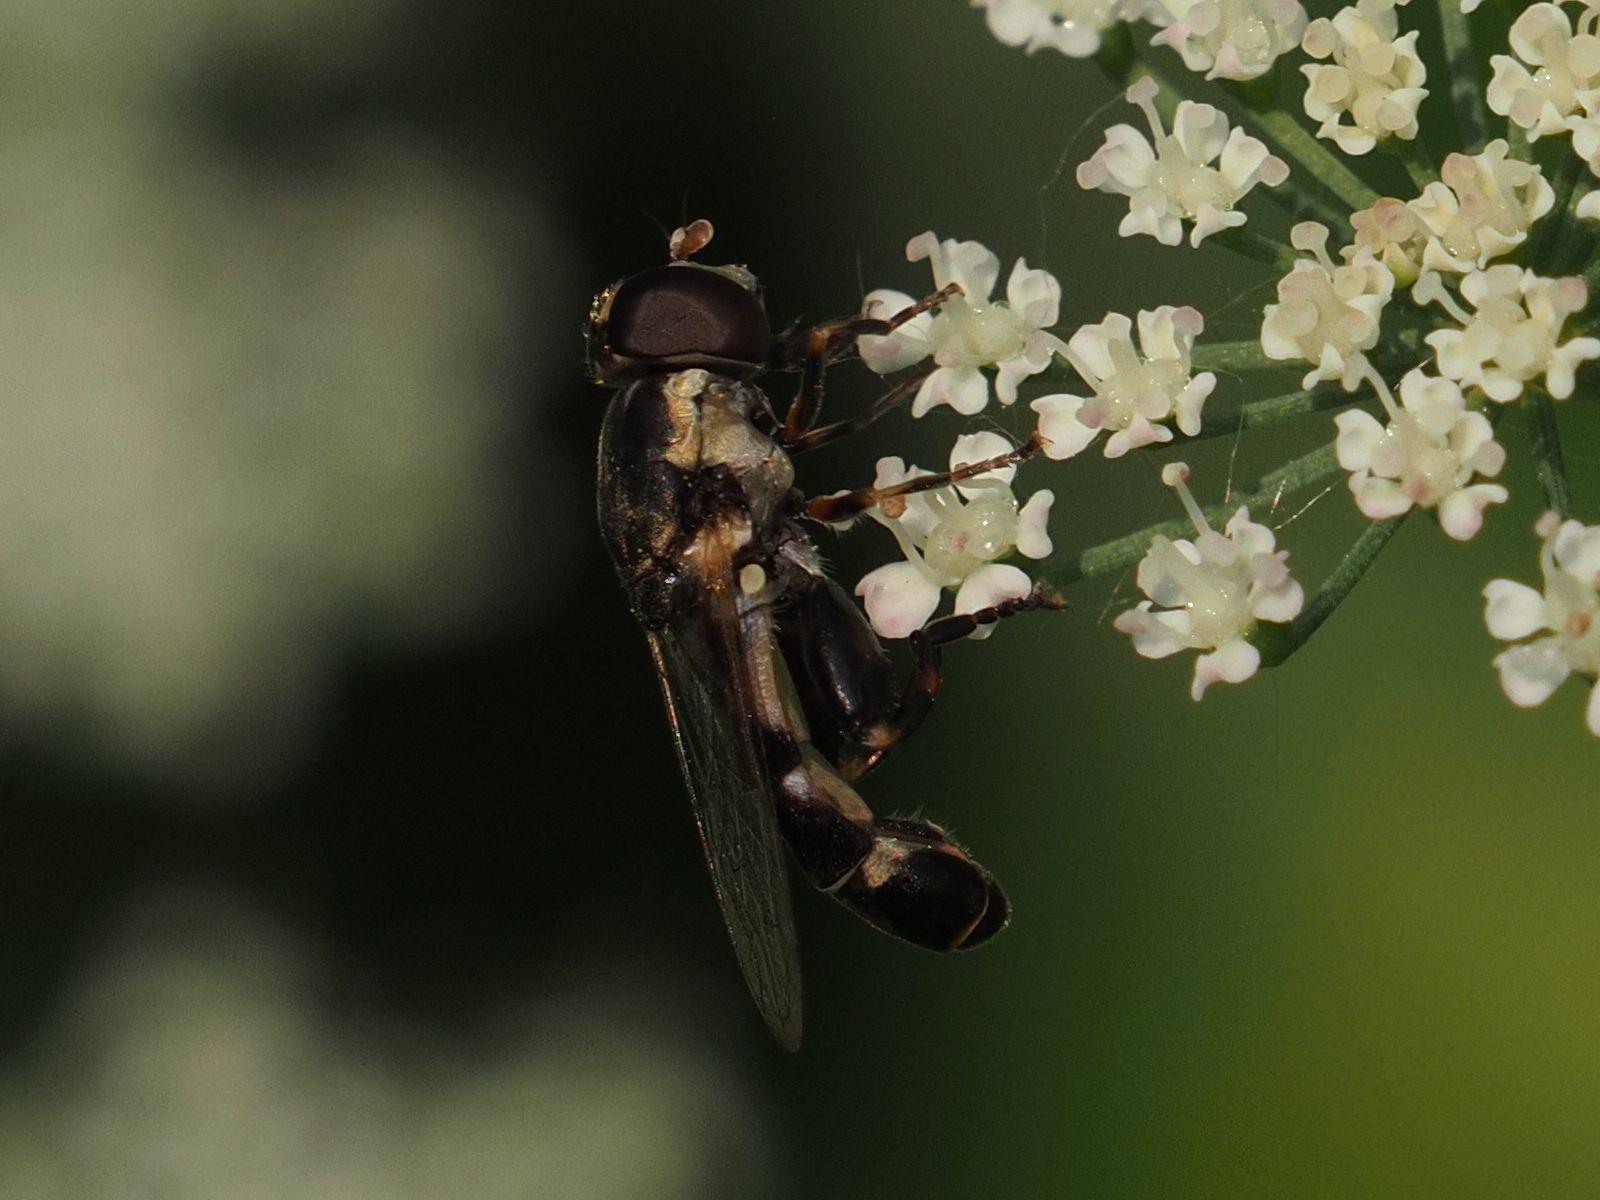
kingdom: Animalia
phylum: Arthropoda
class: Insecta
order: Diptera
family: Syrphidae
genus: Syritta
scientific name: Syritta pipiens
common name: Hover fly
